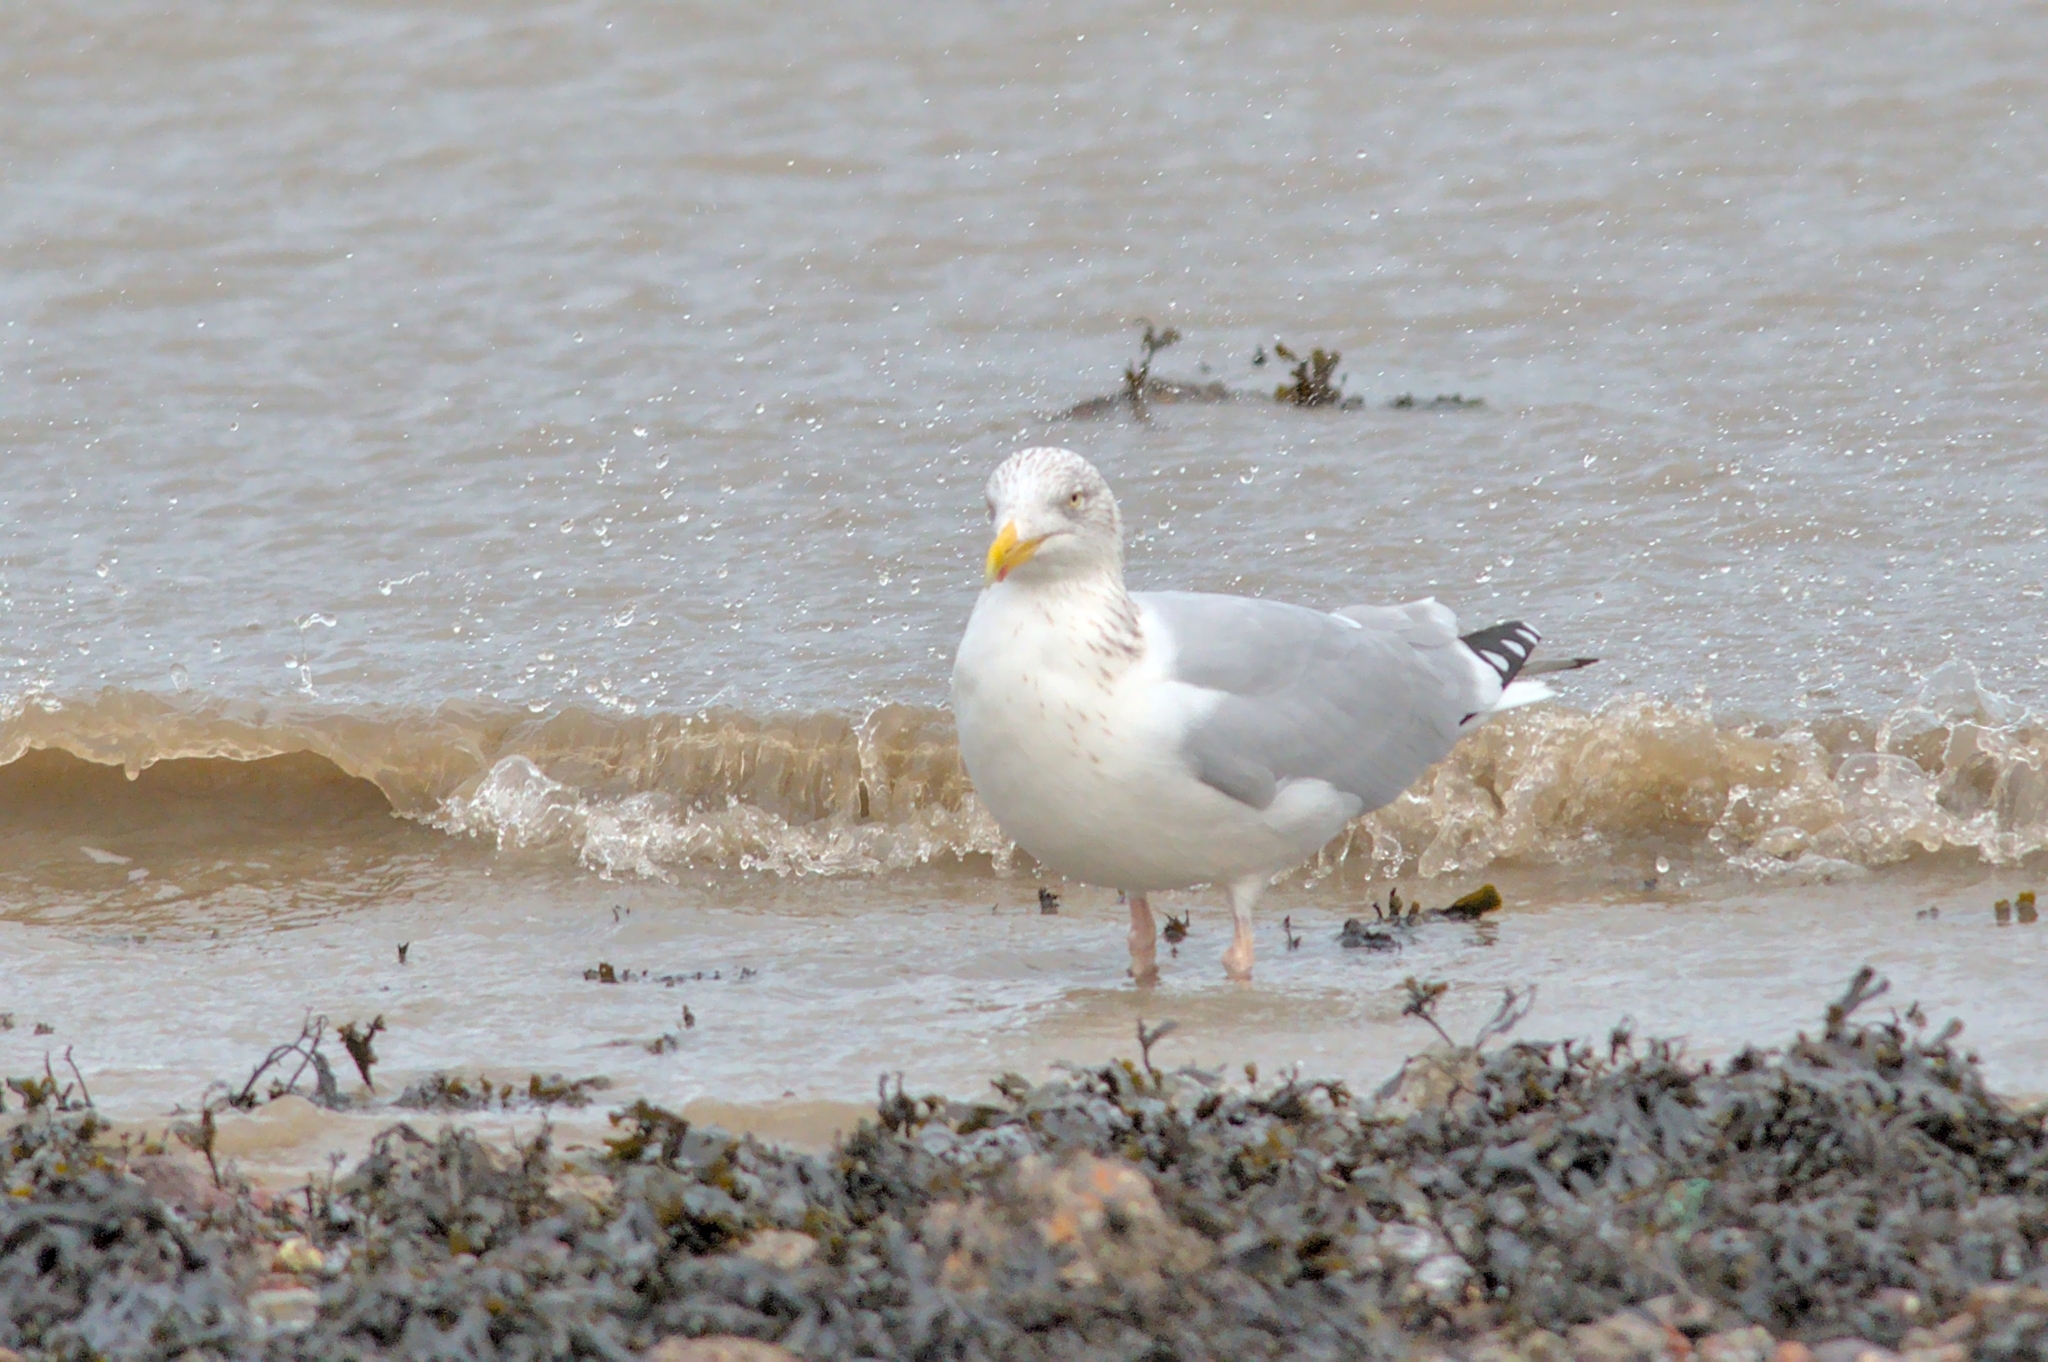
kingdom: Animalia
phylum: Chordata
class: Aves
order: Charadriiformes
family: Laridae
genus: Larus
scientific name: Larus argentatus
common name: Herring gull
